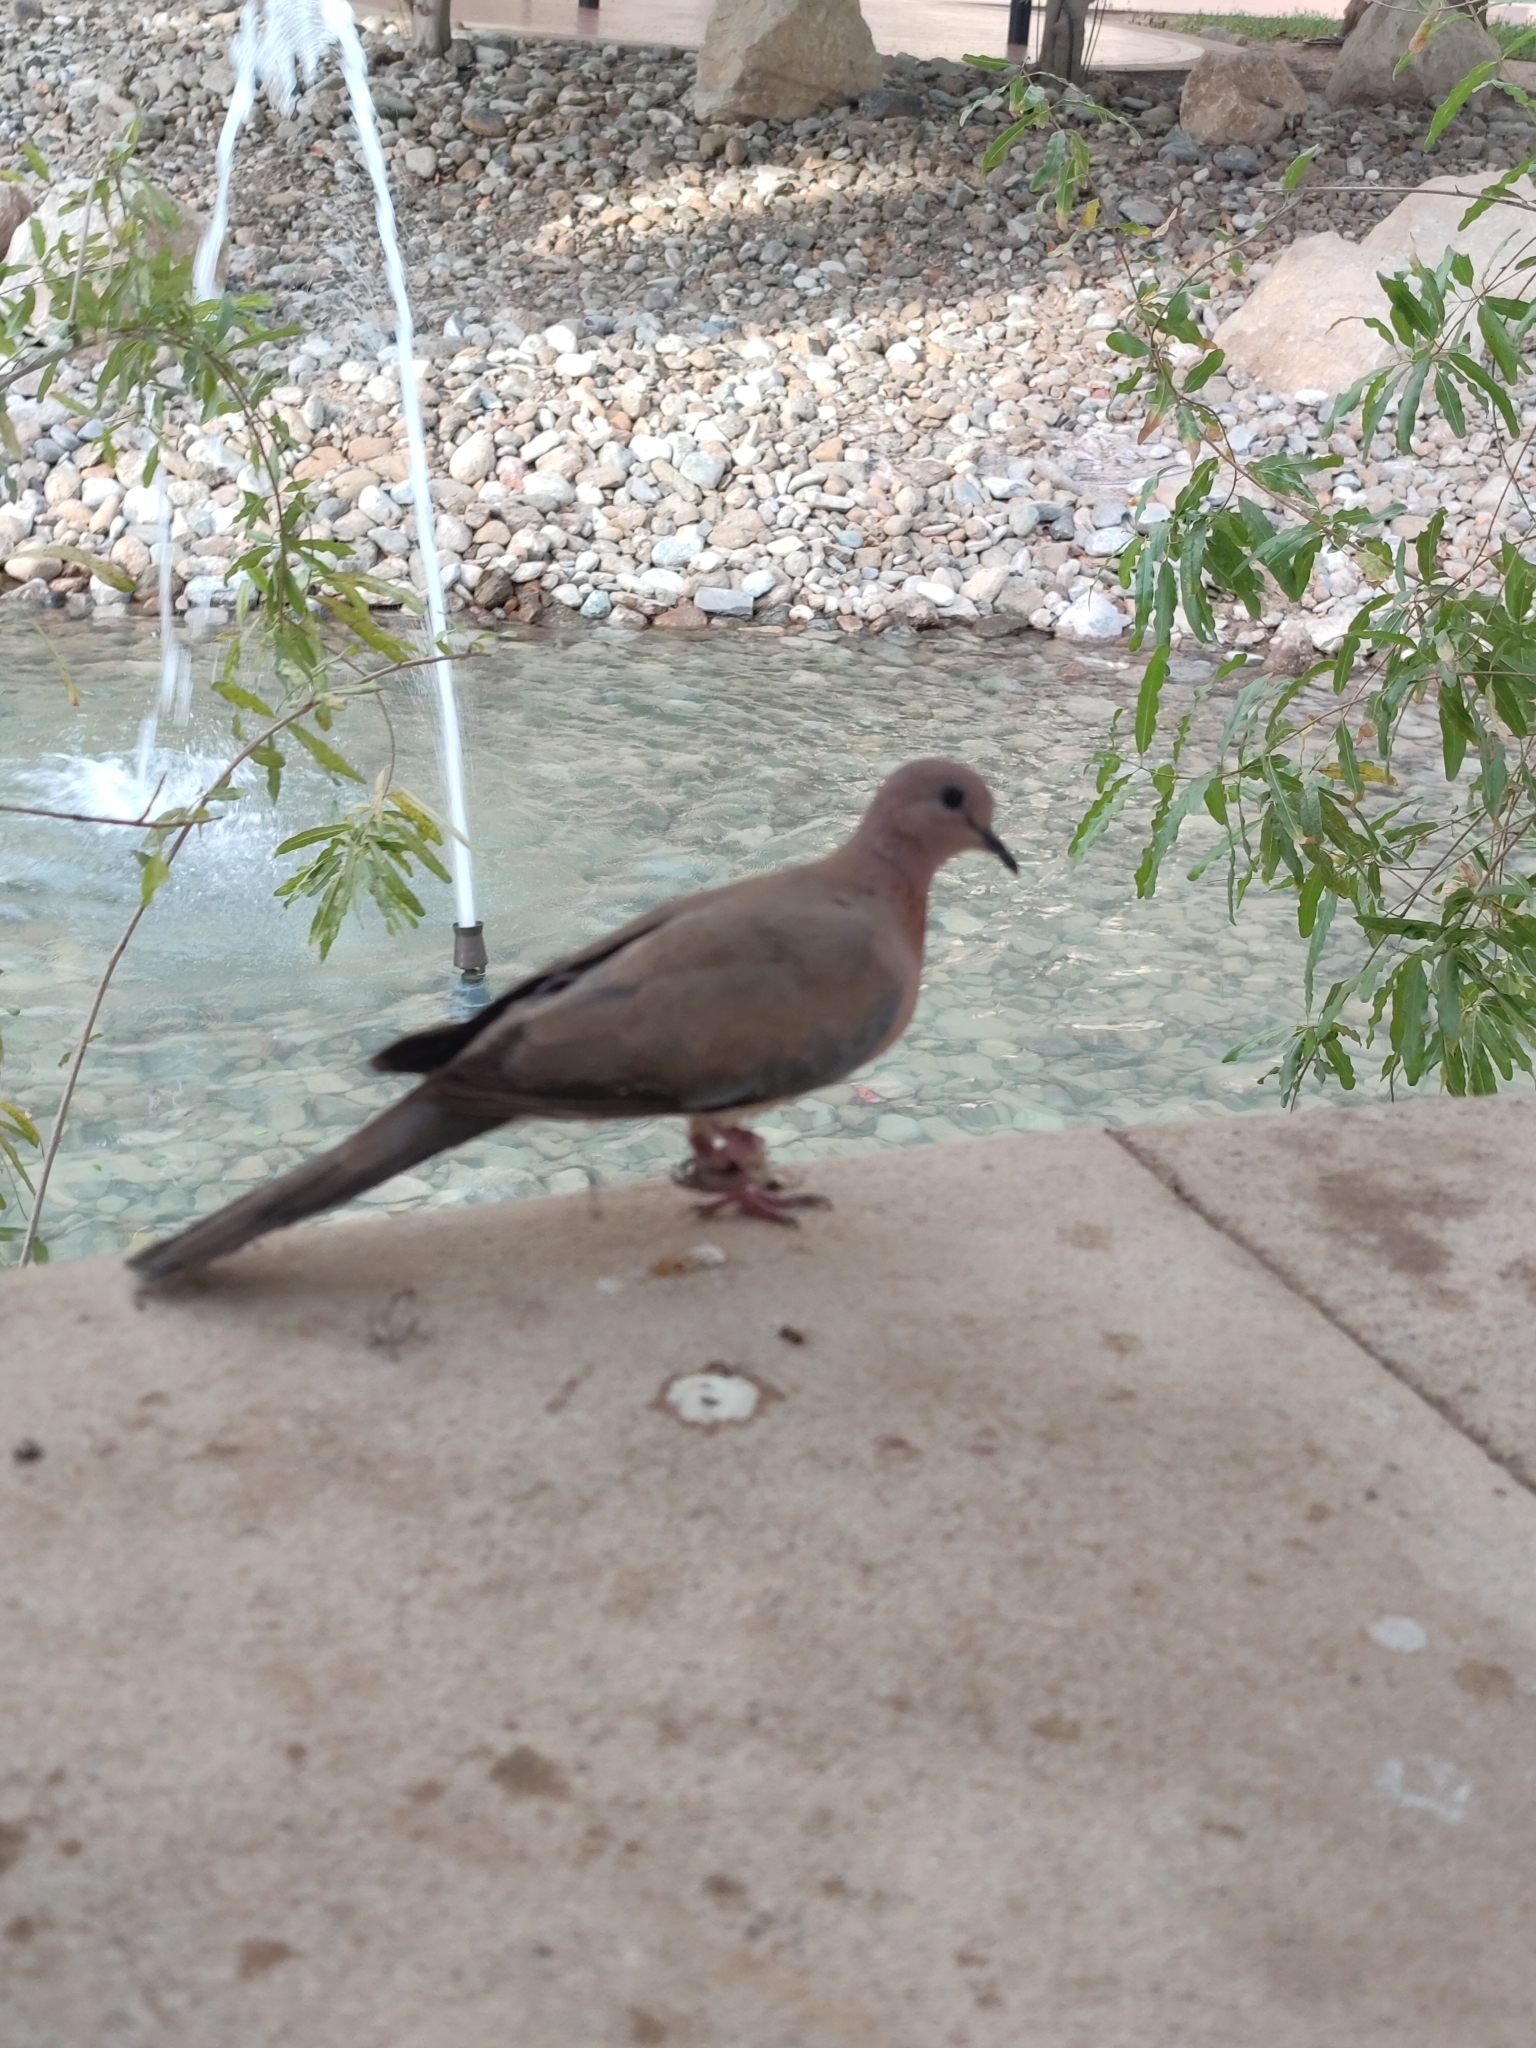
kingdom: Animalia
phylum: Chordata
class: Aves
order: Columbiformes
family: Columbidae
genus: Spilopelia
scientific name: Spilopelia senegalensis
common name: Laughing dove
